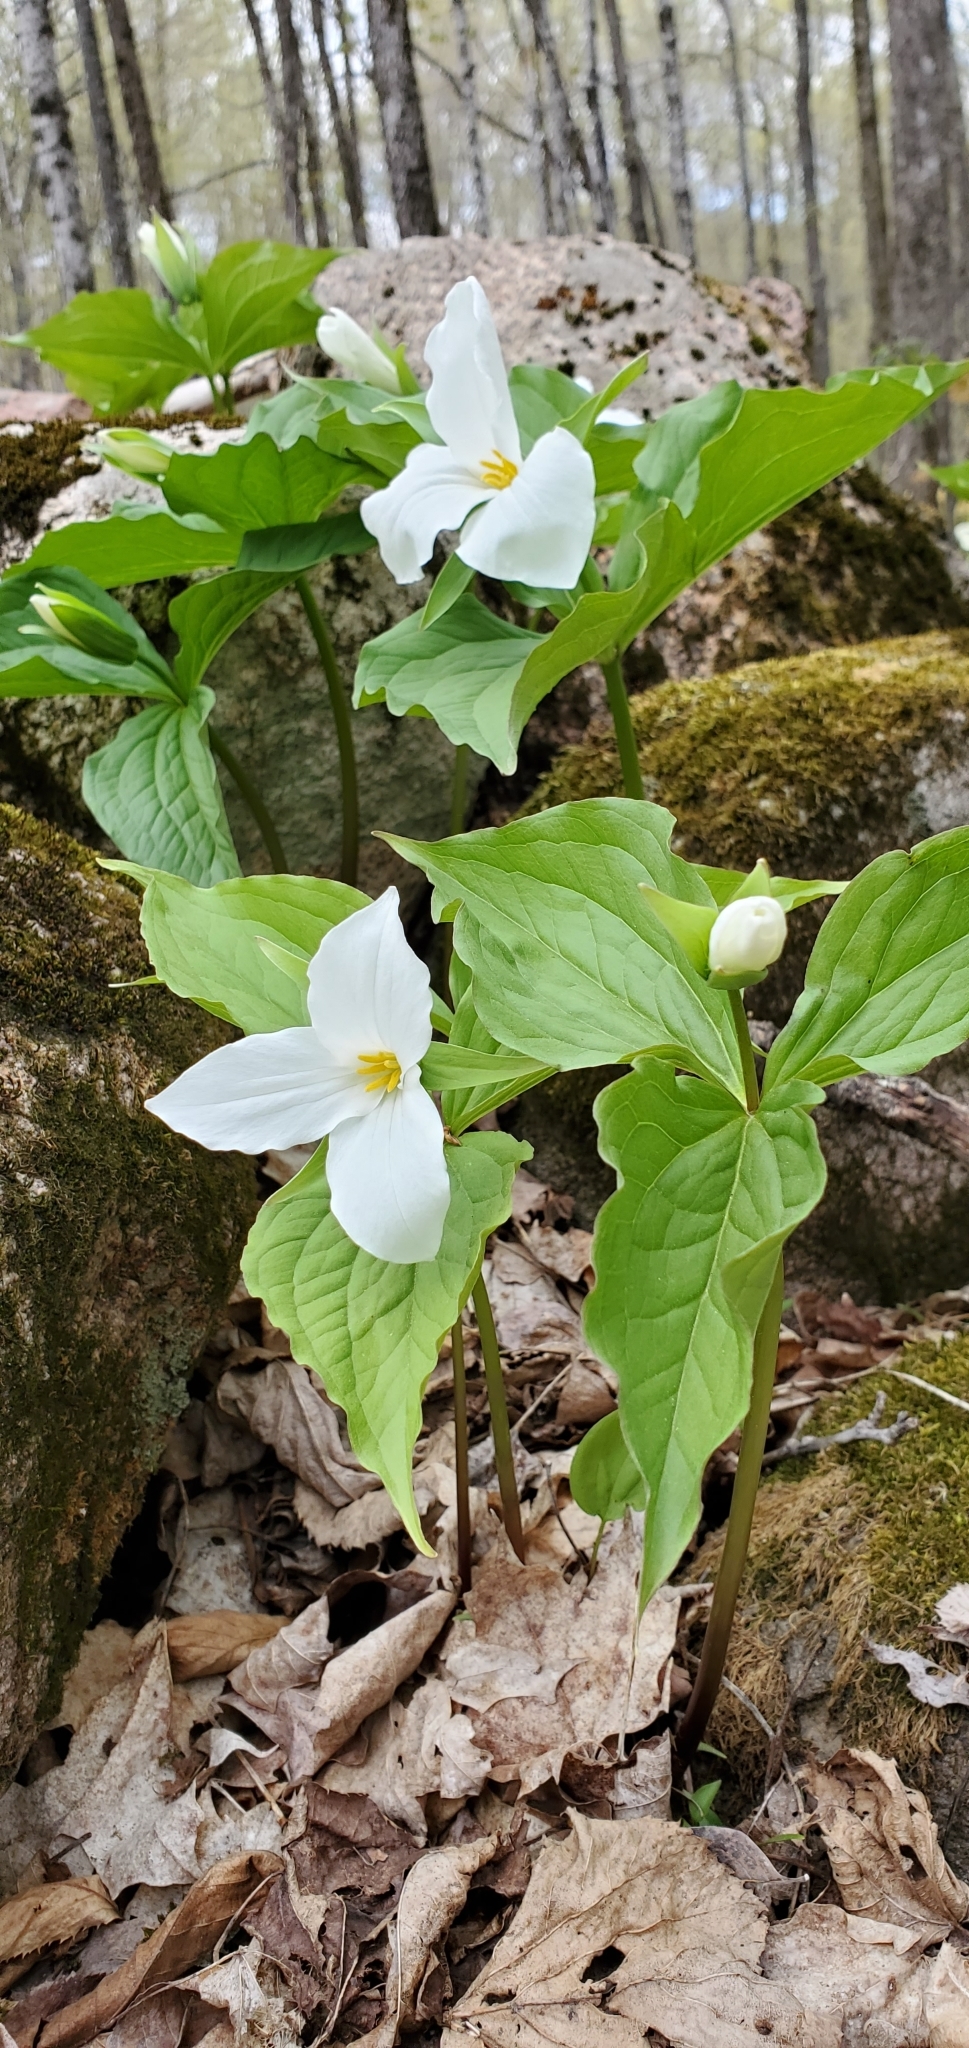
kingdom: Plantae
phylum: Tracheophyta
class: Liliopsida
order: Liliales
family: Melanthiaceae
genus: Trillium
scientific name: Trillium grandiflorum
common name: Great white trillium
